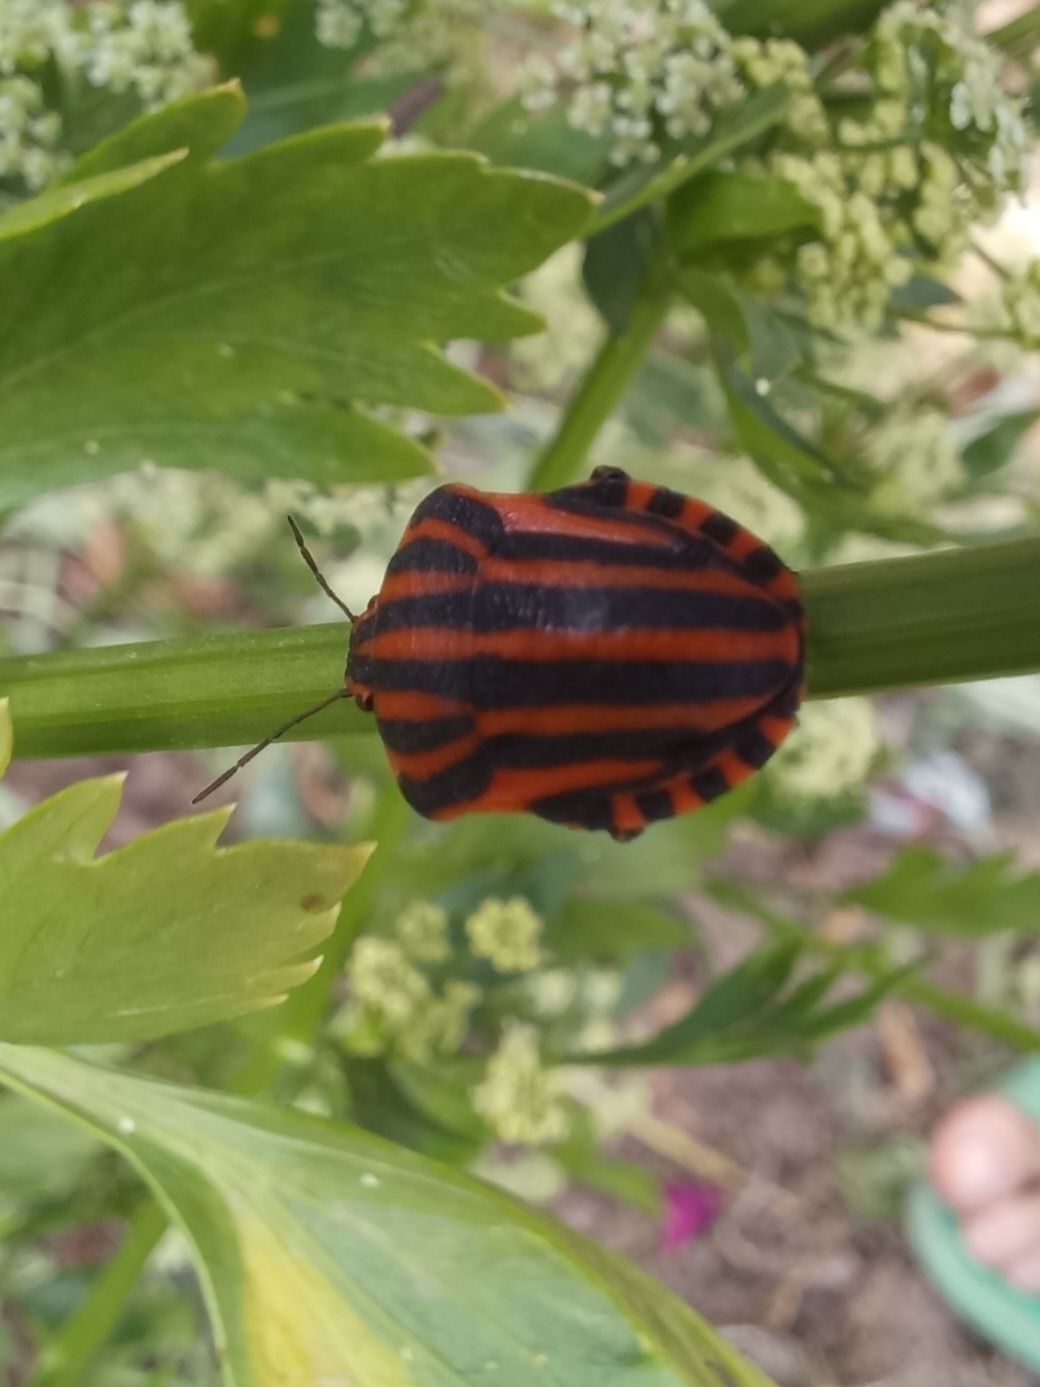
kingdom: Animalia
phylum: Arthropoda
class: Insecta
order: Hemiptera
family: Pentatomidae
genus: Graphosoma
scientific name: Graphosoma italicum
